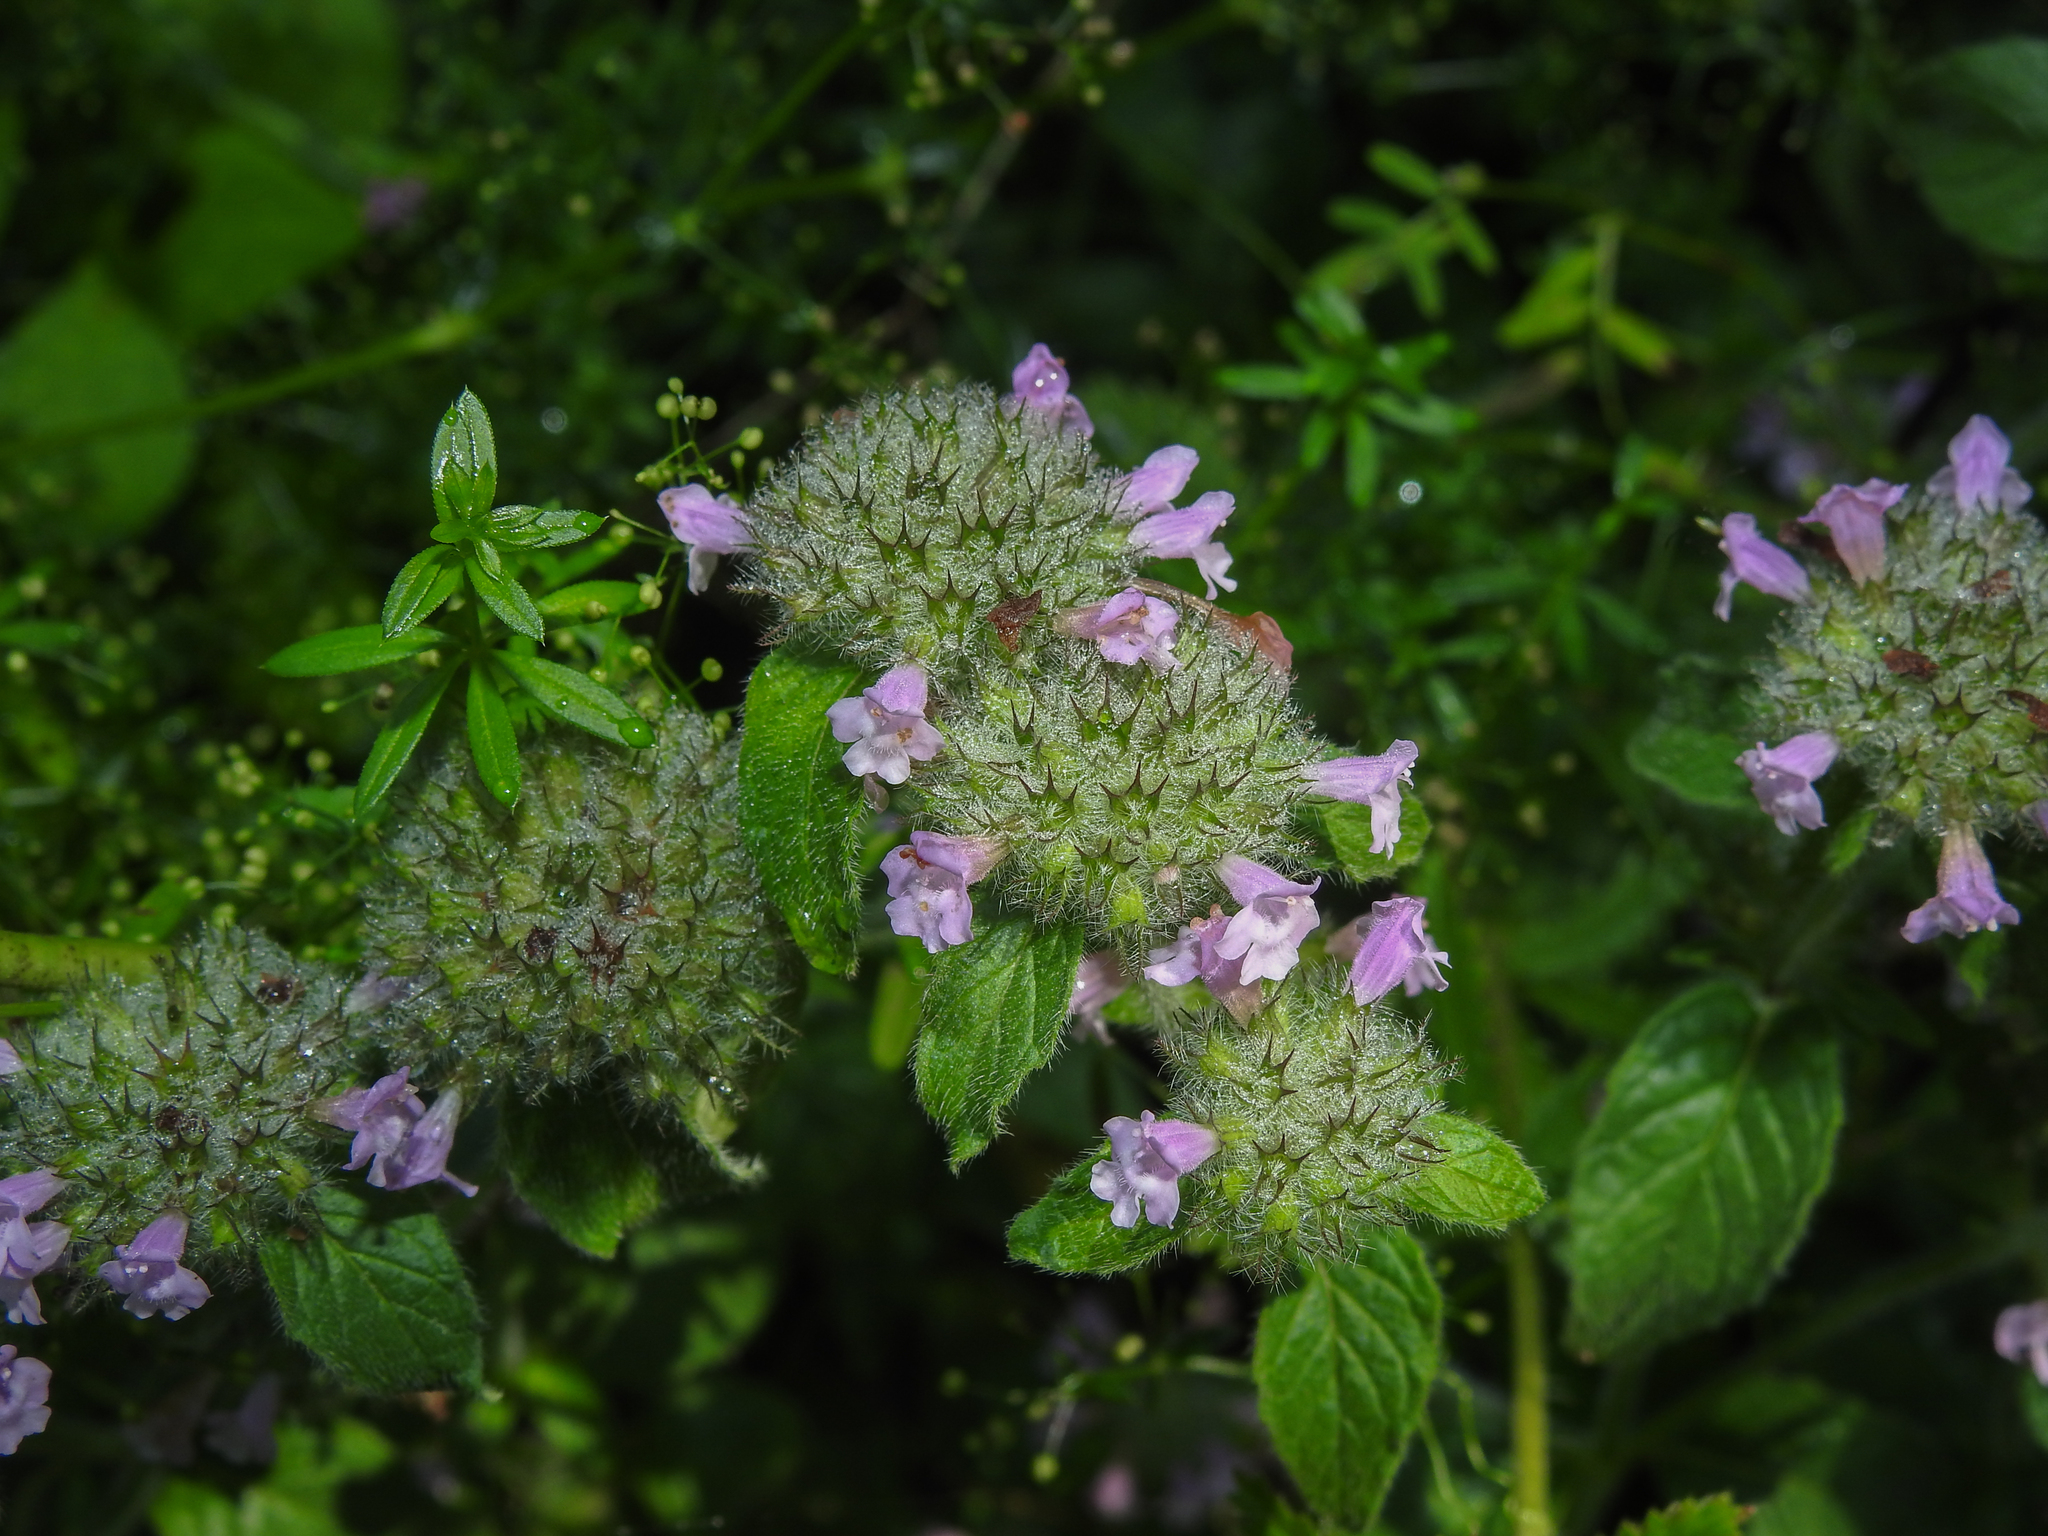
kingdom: Plantae
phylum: Tracheophyta
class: Magnoliopsida
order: Lamiales
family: Lamiaceae
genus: Clinopodium
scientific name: Clinopodium vulgare
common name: Wild basil
